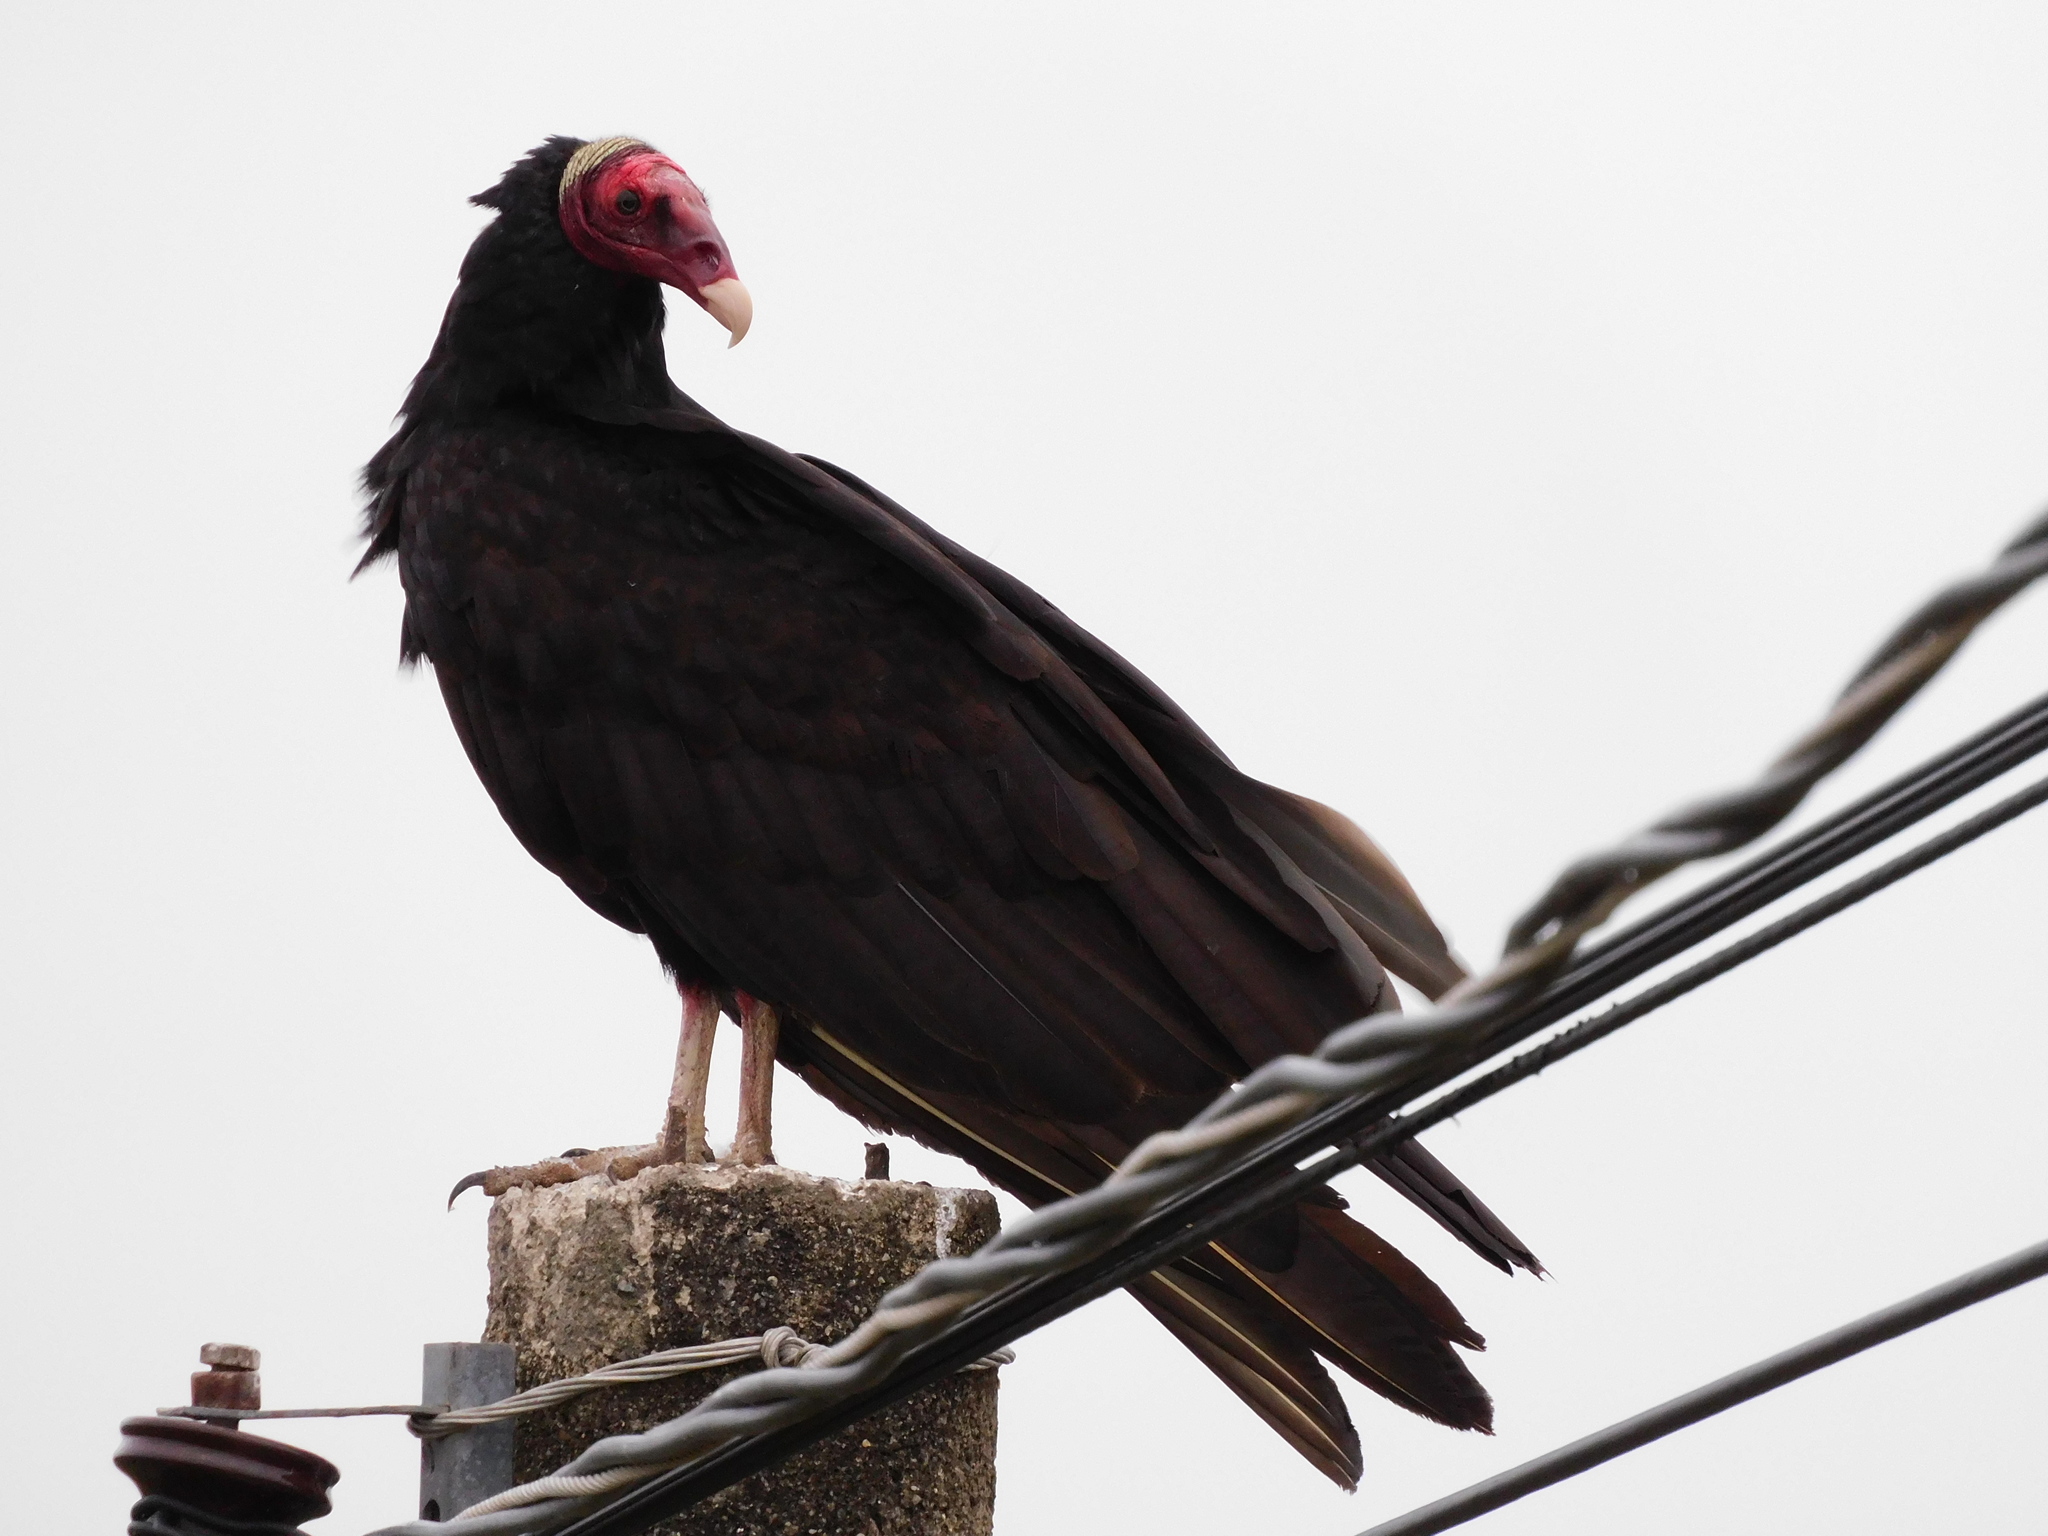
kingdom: Animalia
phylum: Chordata
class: Aves
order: Accipitriformes
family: Cathartidae
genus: Cathartes
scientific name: Cathartes aura
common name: Turkey vulture
